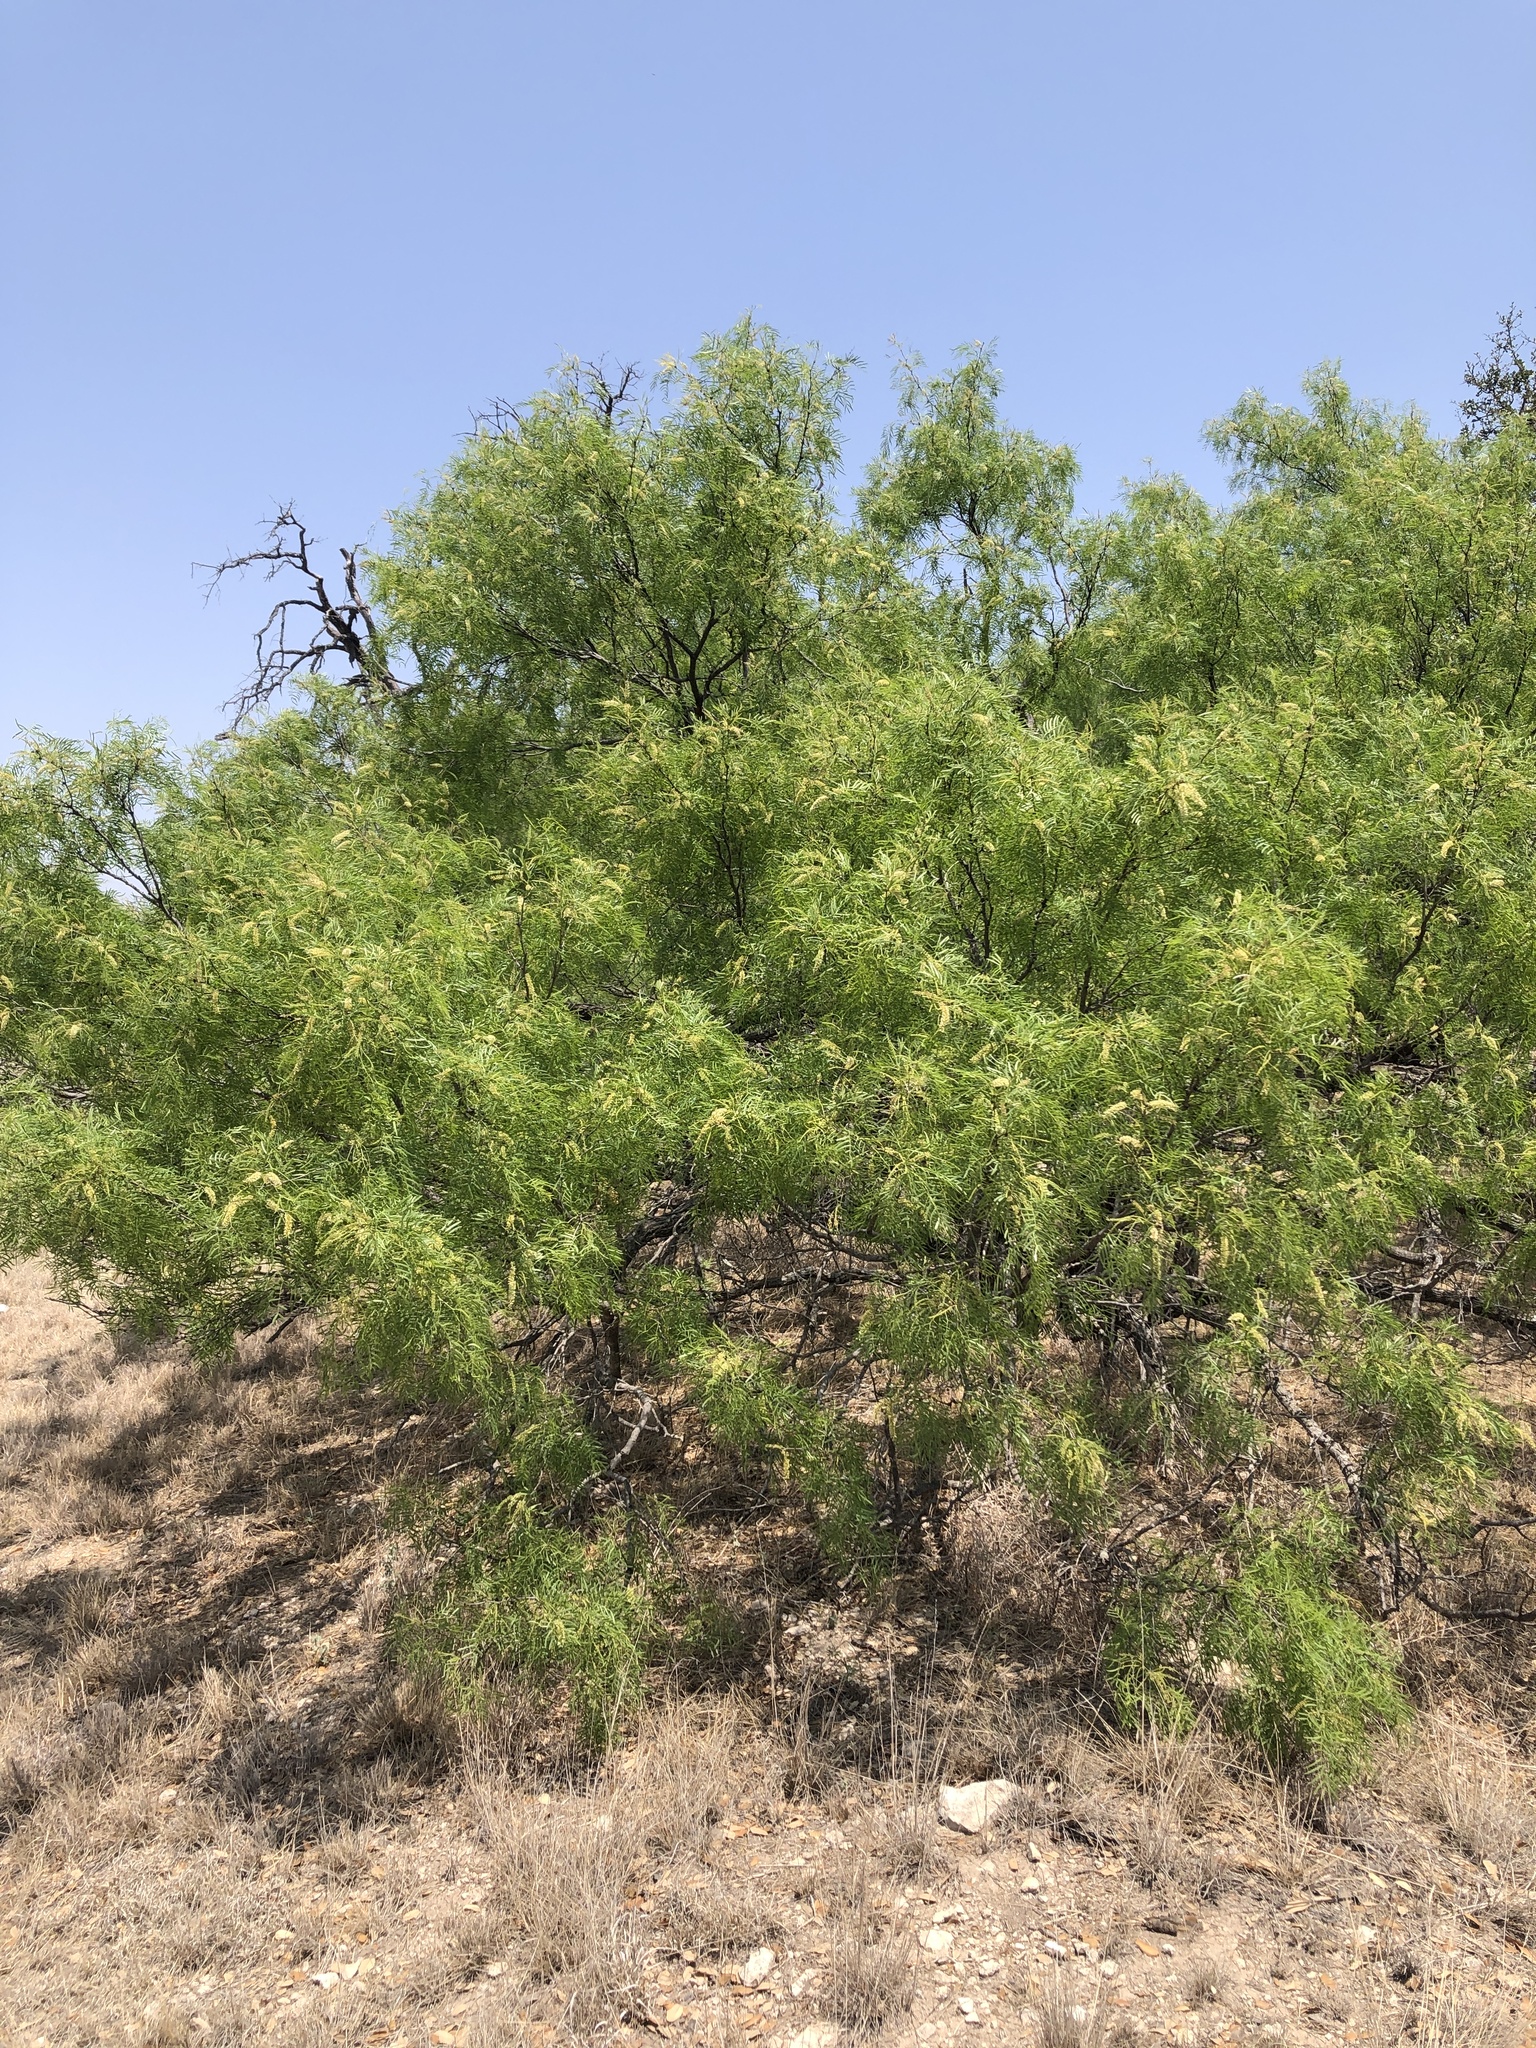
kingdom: Plantae
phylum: Tracheophyta
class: Magnoliopsida
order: Fabales
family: Fabaceae
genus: Prosopis
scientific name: Prosopis glandulosa
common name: Honey mesquite
